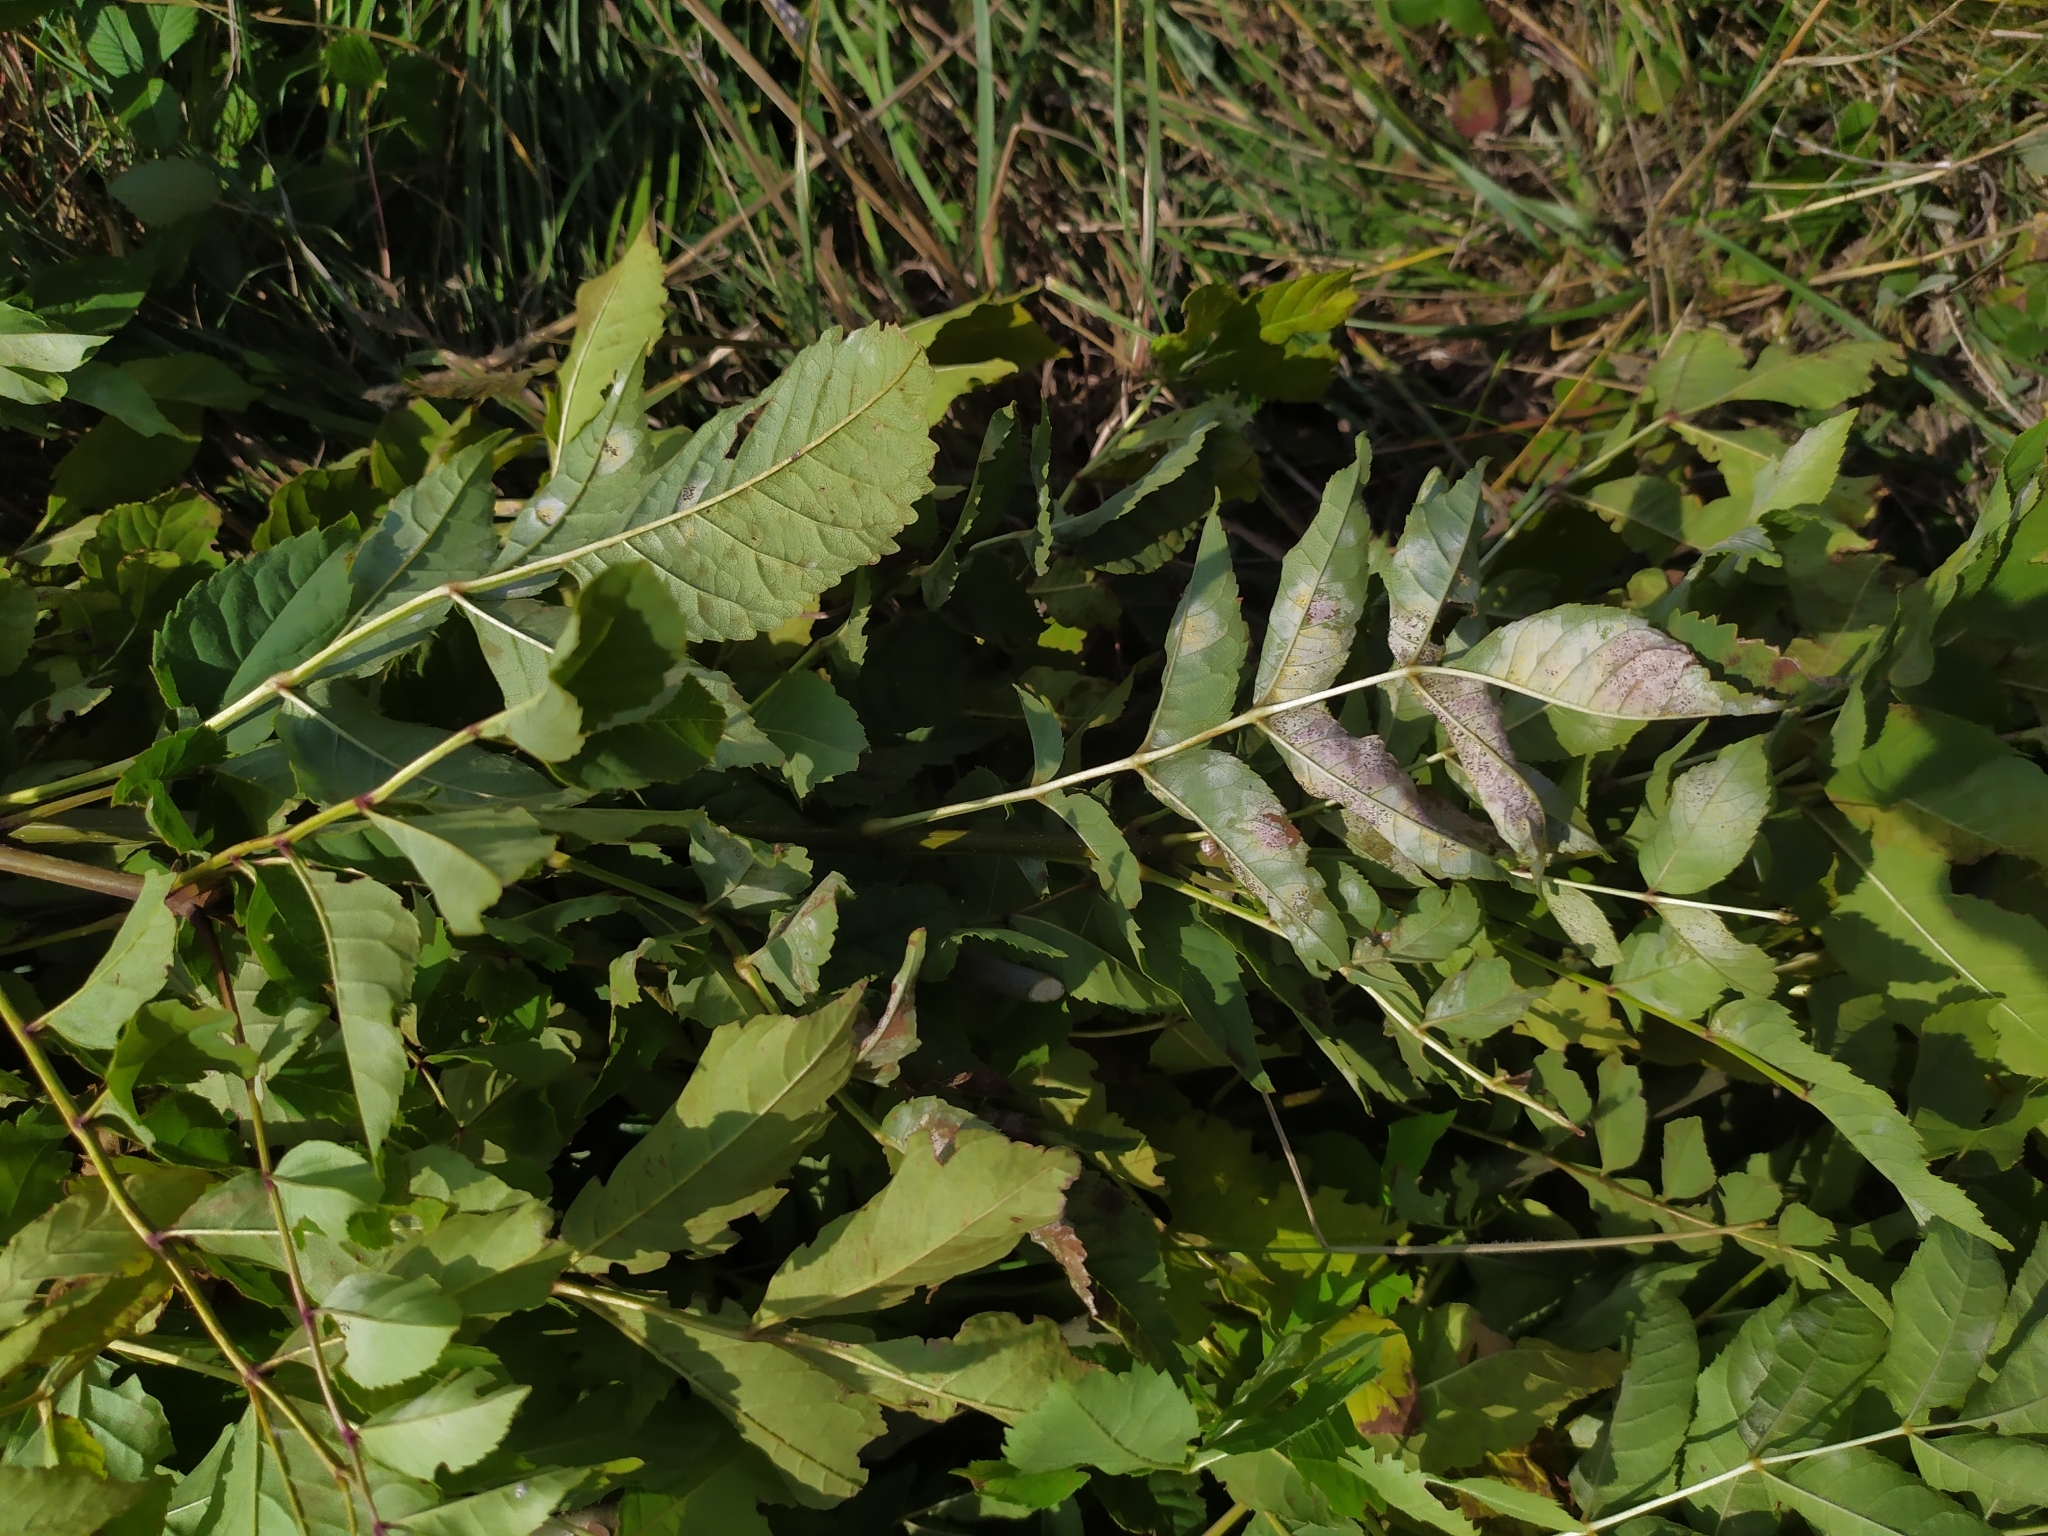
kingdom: Fungi
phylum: Ascomycota
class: Leotiomycetes
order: Helotiales
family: Erysiphaceae
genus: Phyllactinia
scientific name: Phyllactinia fraxini
